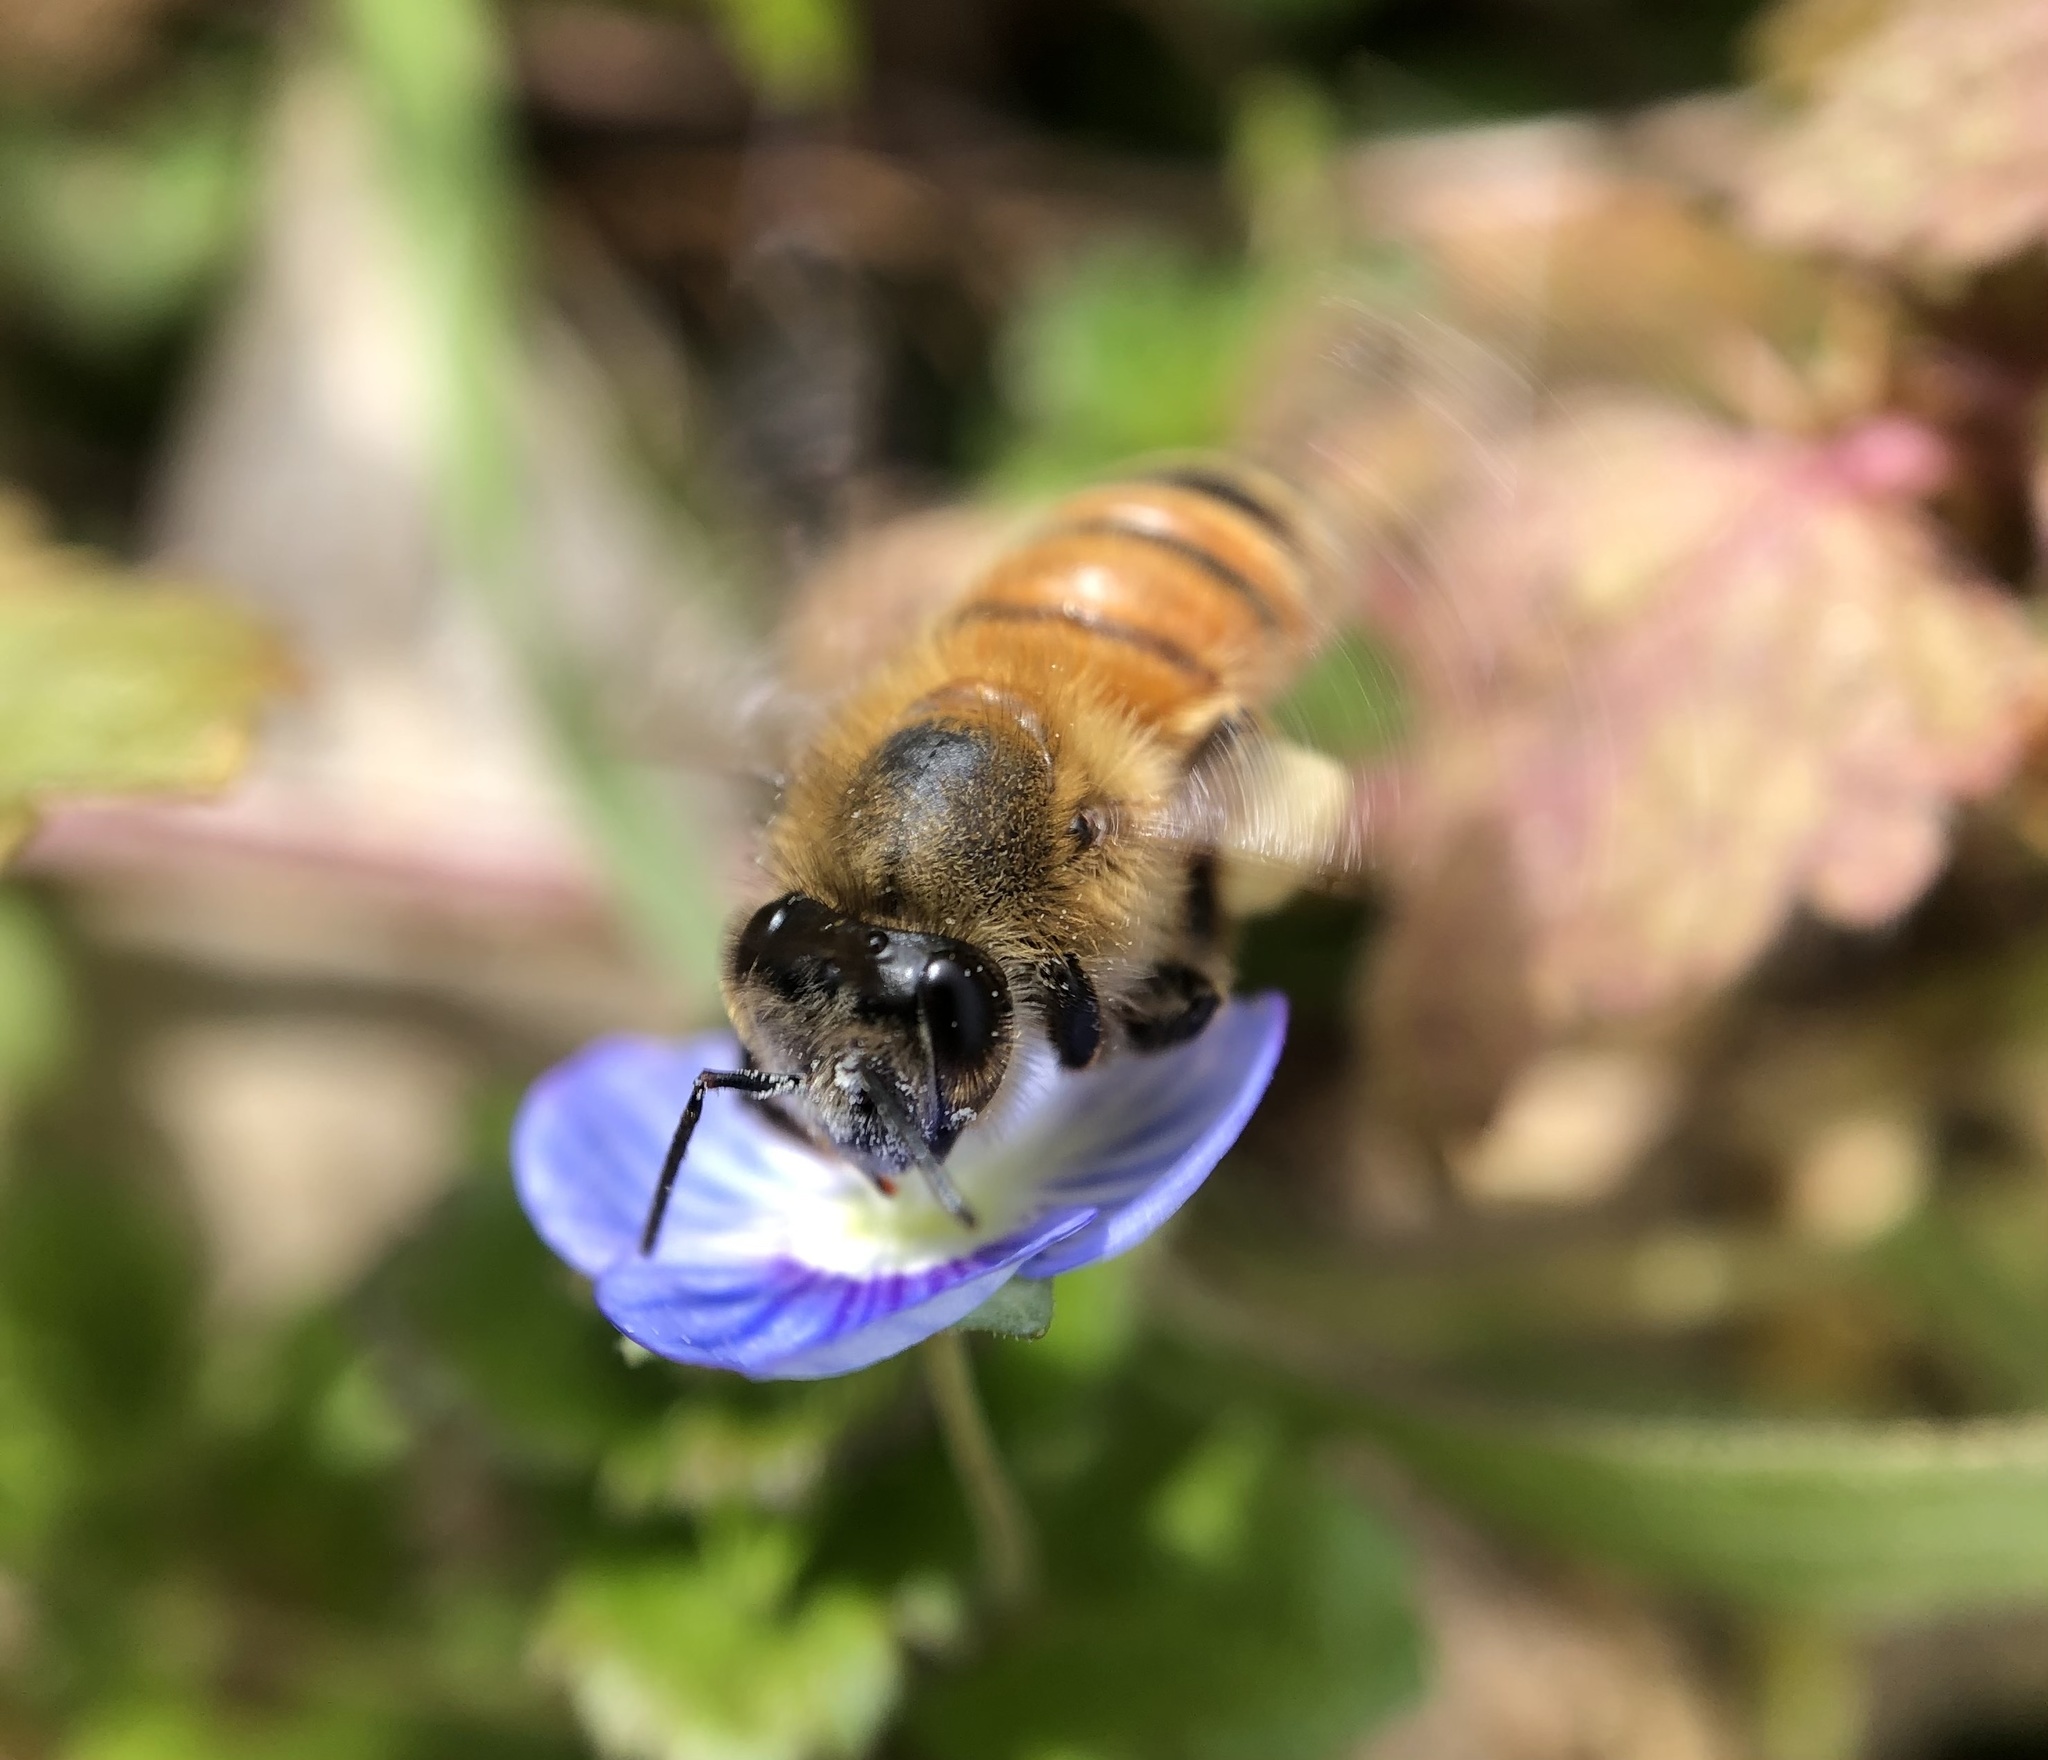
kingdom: Animalia
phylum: Arthropoda
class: Insecta
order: Hymenoptera
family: Apidae
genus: Apis
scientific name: Apis mellifera
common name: Honey bee
